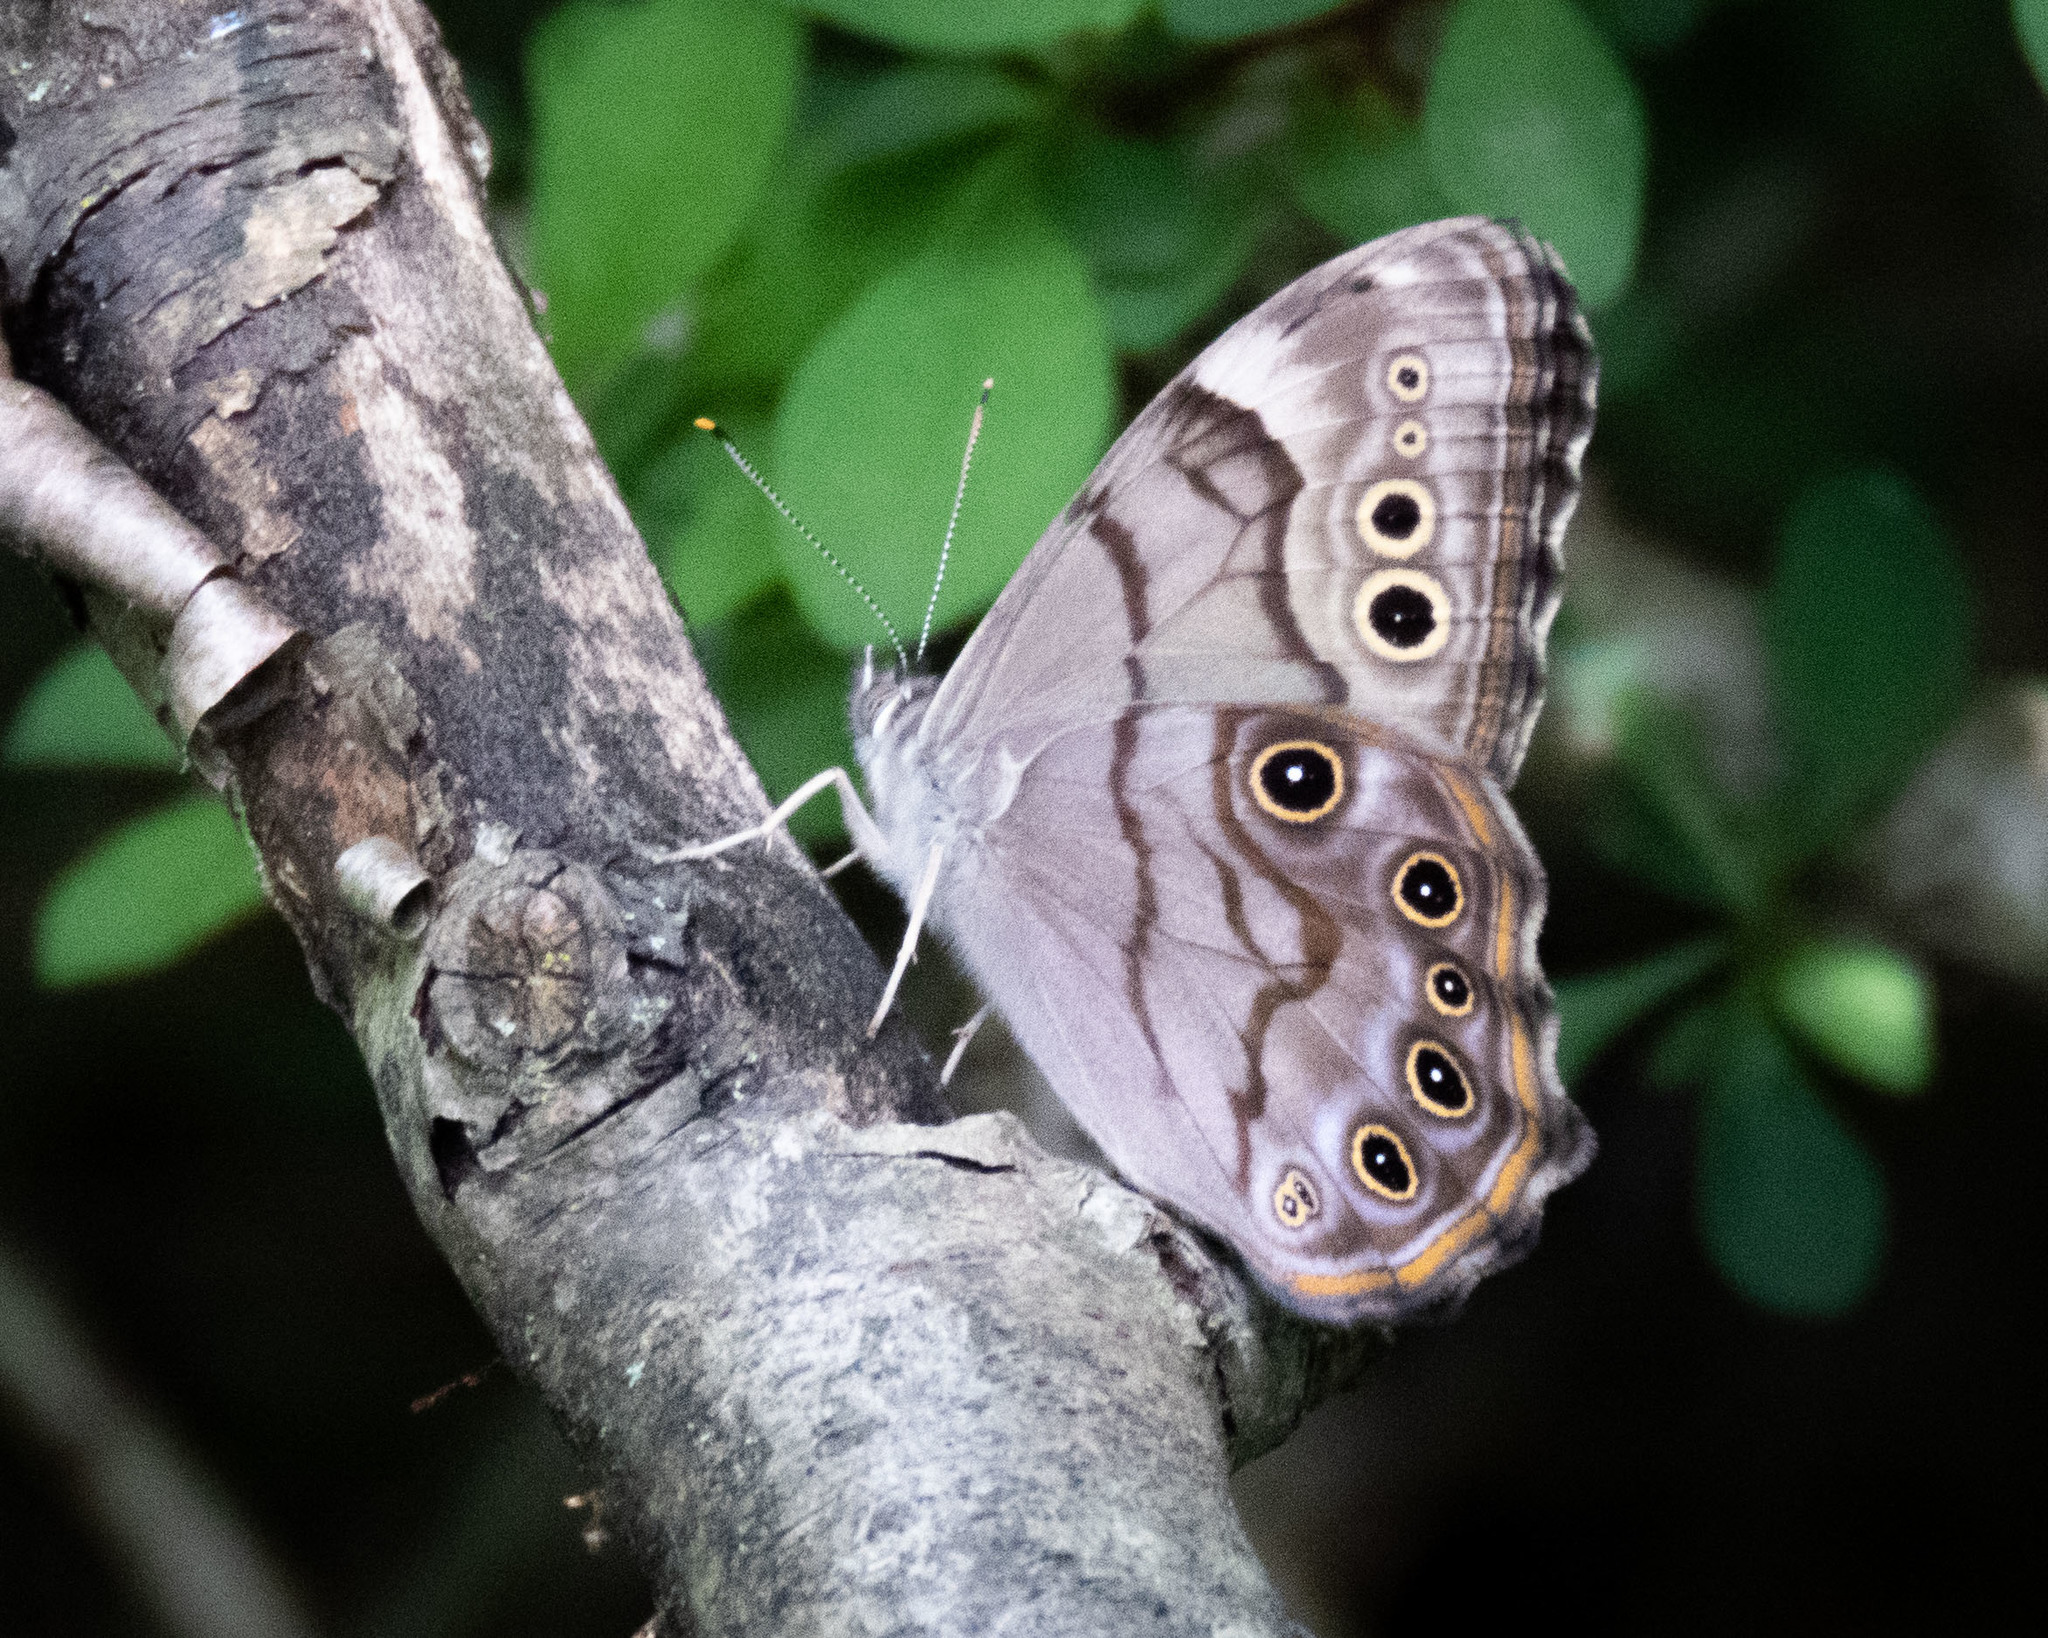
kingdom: Animalia
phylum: Arthropoda
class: Insecta
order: Lepidoptera
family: Nymphalidae
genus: Lethe
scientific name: Lethe anthedon
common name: Northern pearly-eye
